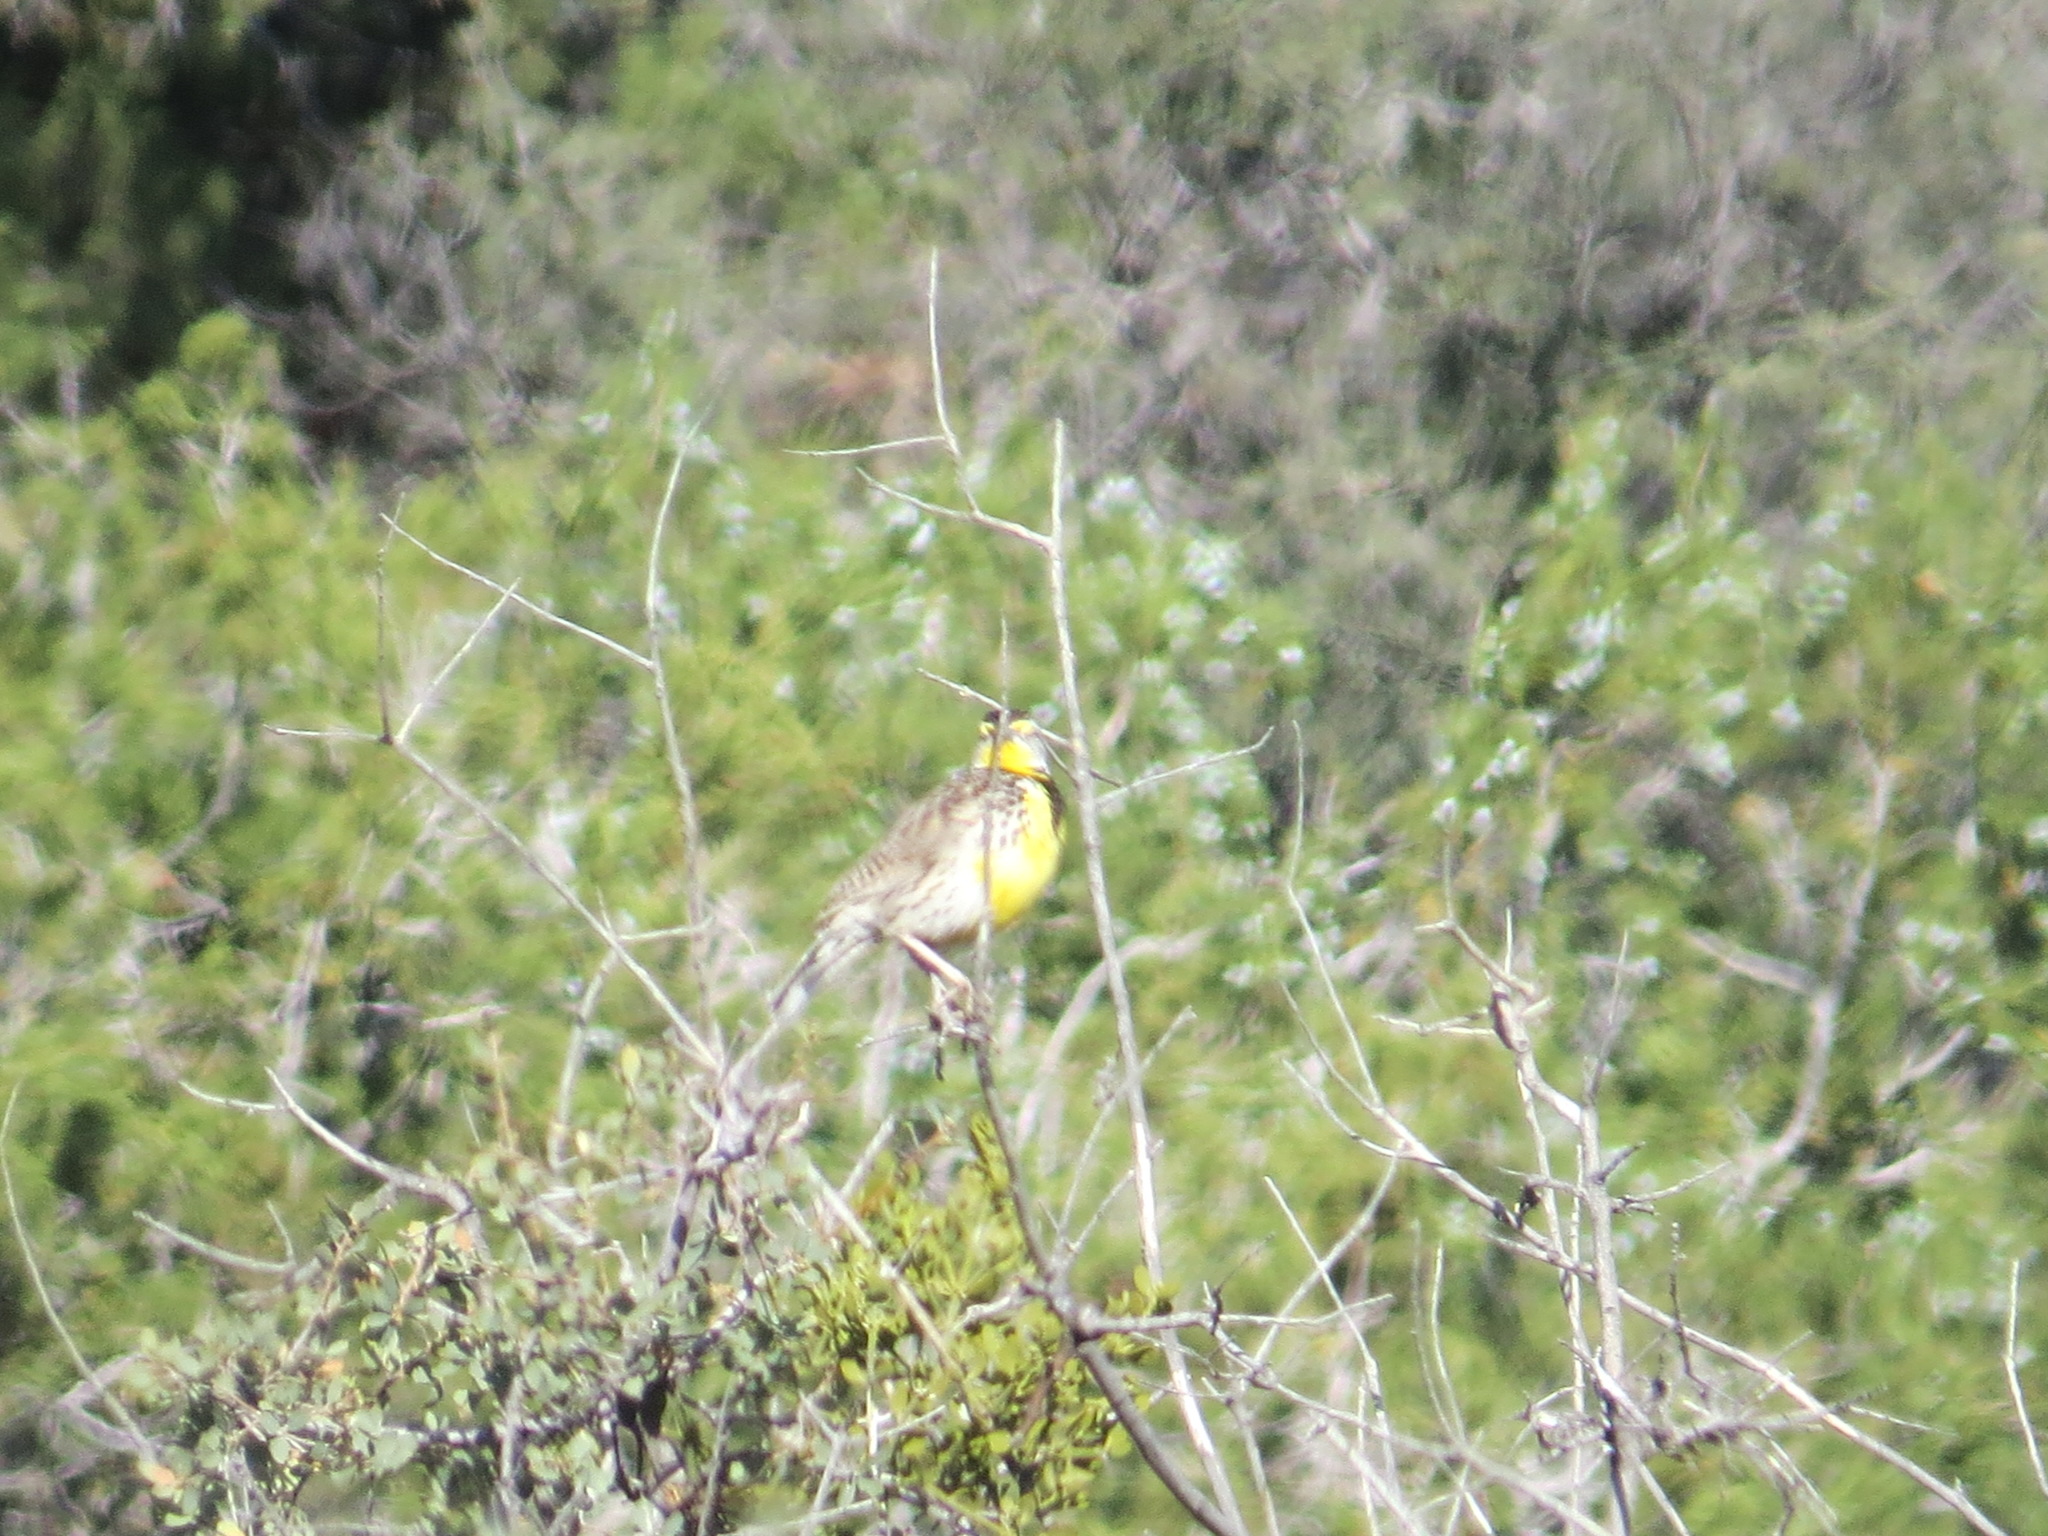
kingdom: Animalia
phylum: Chordata
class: Aves
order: Passeriformes
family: Icteridae
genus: Sturnella
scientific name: Sturnella neglecta
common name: Western meadowlark
